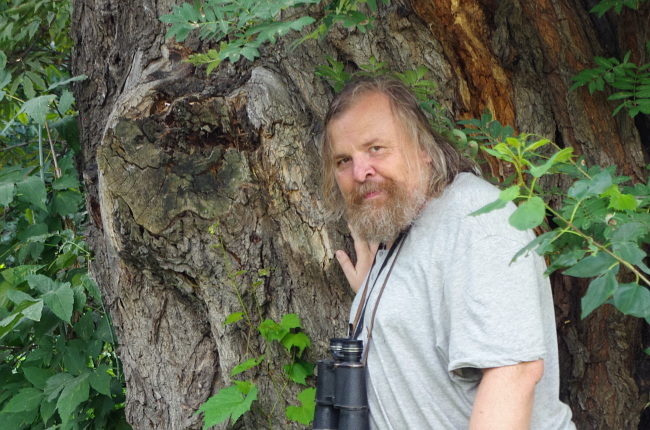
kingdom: Plantae
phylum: Tracheophyta
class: Magnoliopsida
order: Malpighiales
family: Salicaceae
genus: Salix
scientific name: Salix fragilis
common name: Crack willow
